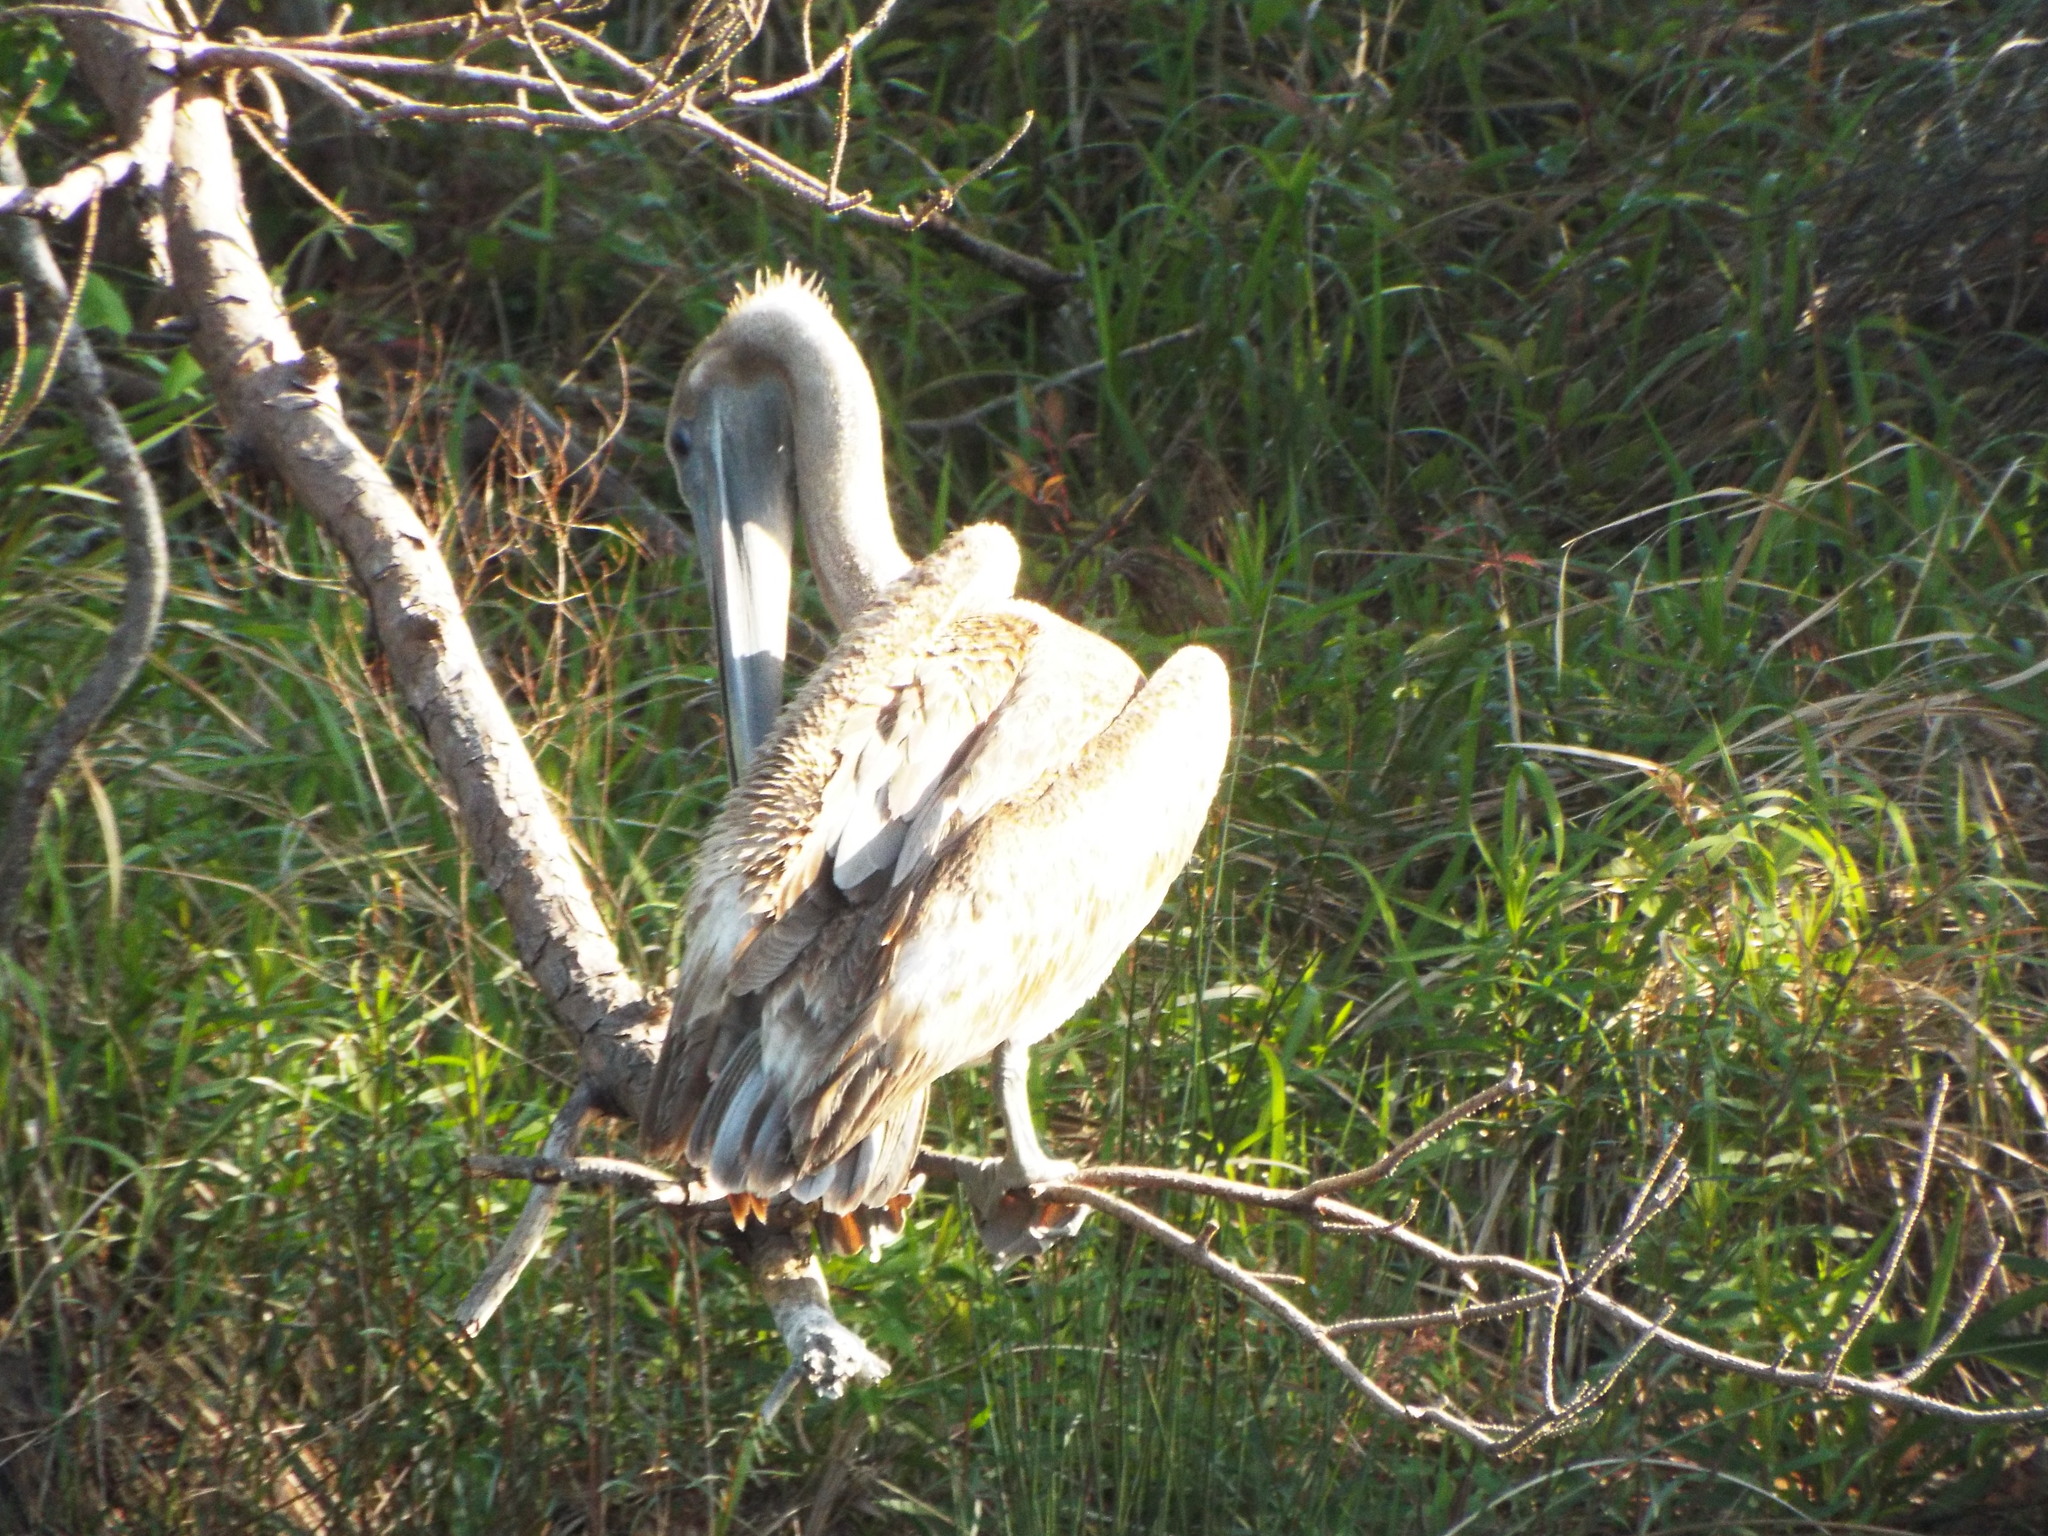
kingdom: Animalia
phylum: Chordata
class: Aves
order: Pelecaniformes
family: Pelecanidae
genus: Pelecanus
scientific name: Pelecanus occidentalis
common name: Brown pelican
